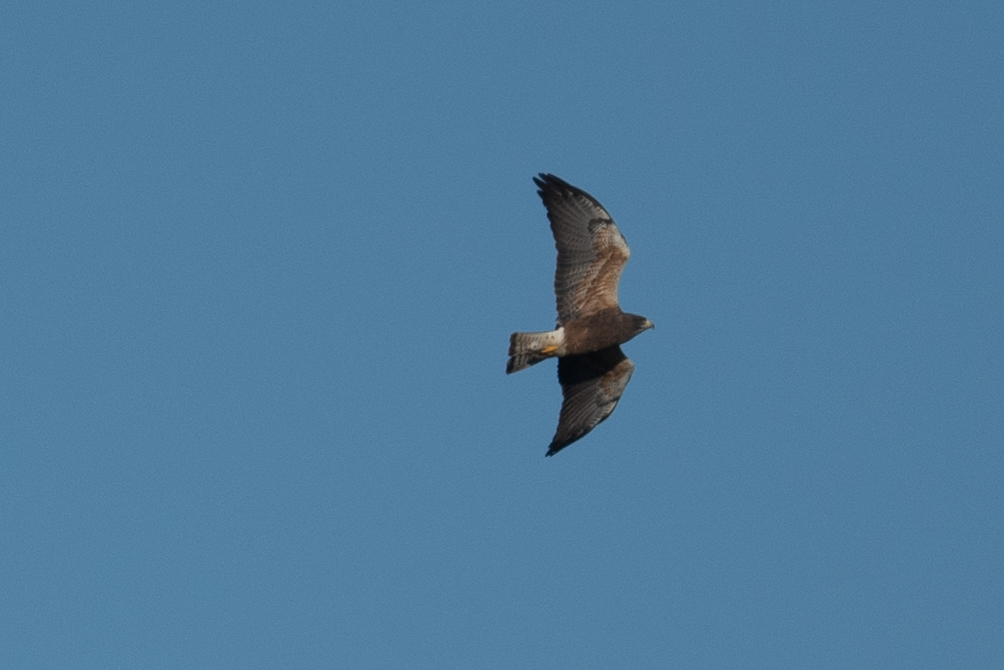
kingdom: Animalia
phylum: Chordata
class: Aves
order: Accipitriformes
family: Accipitridae
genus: Buteo
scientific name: Buteo swainsoni
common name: Swainson's hawk
